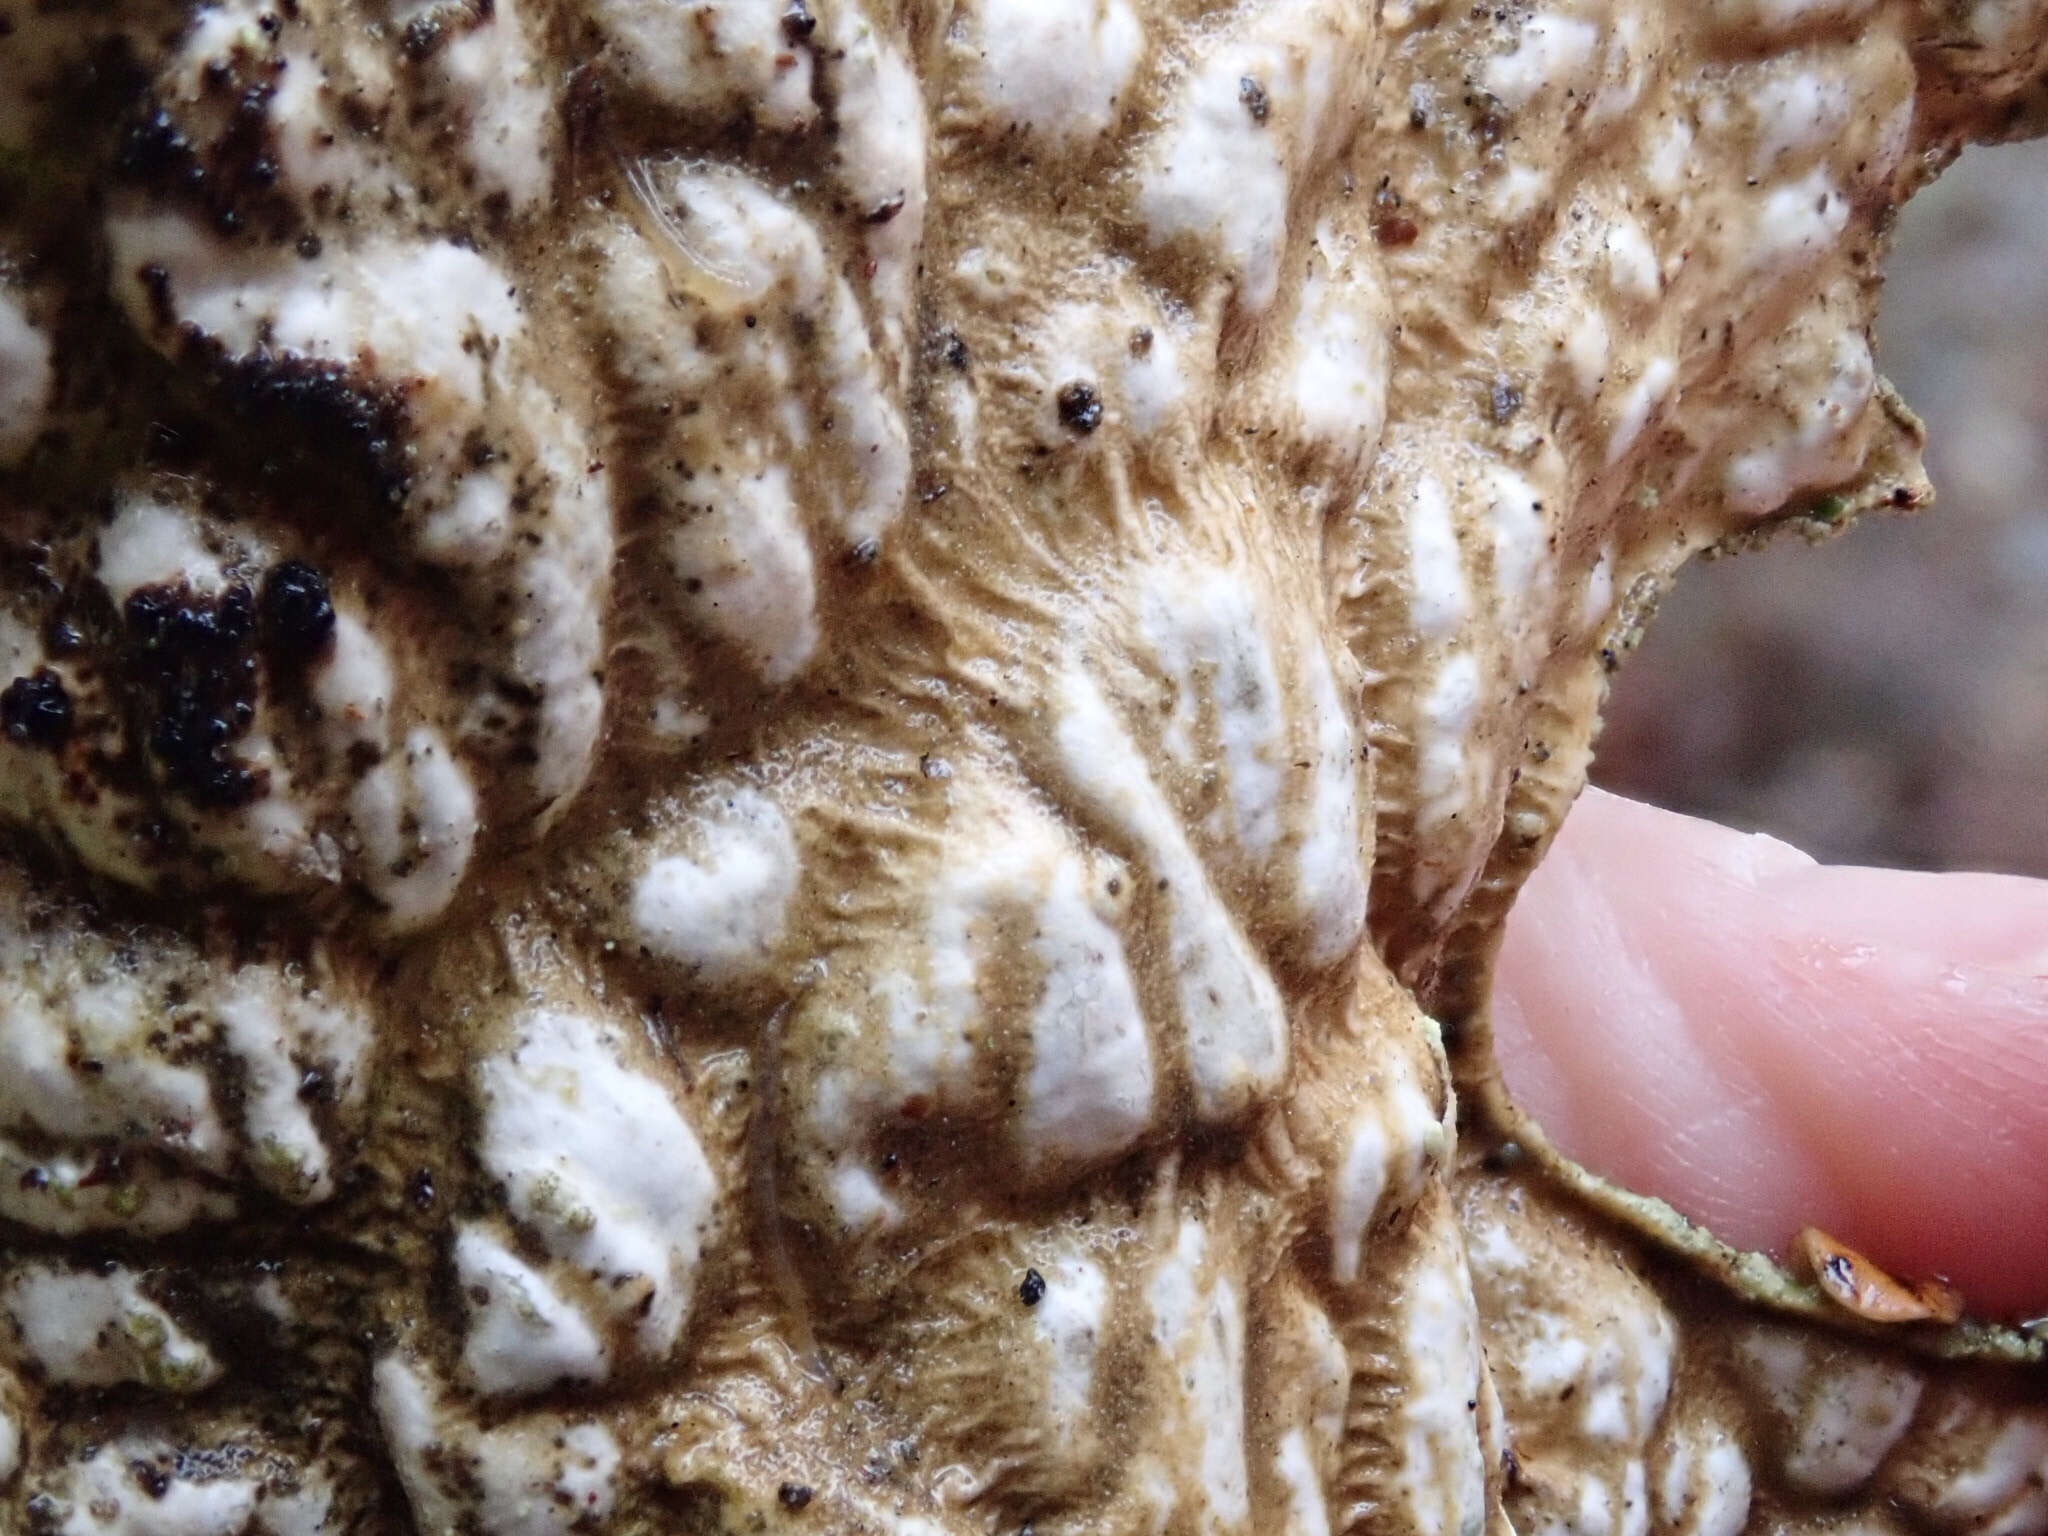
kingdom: Fungi
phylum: Ascomycota
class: Lecanoromycetes
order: Peltigerales
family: Lobariaceae
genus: Lobaria
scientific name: Lobaria pulmonaria
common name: Lungwort
